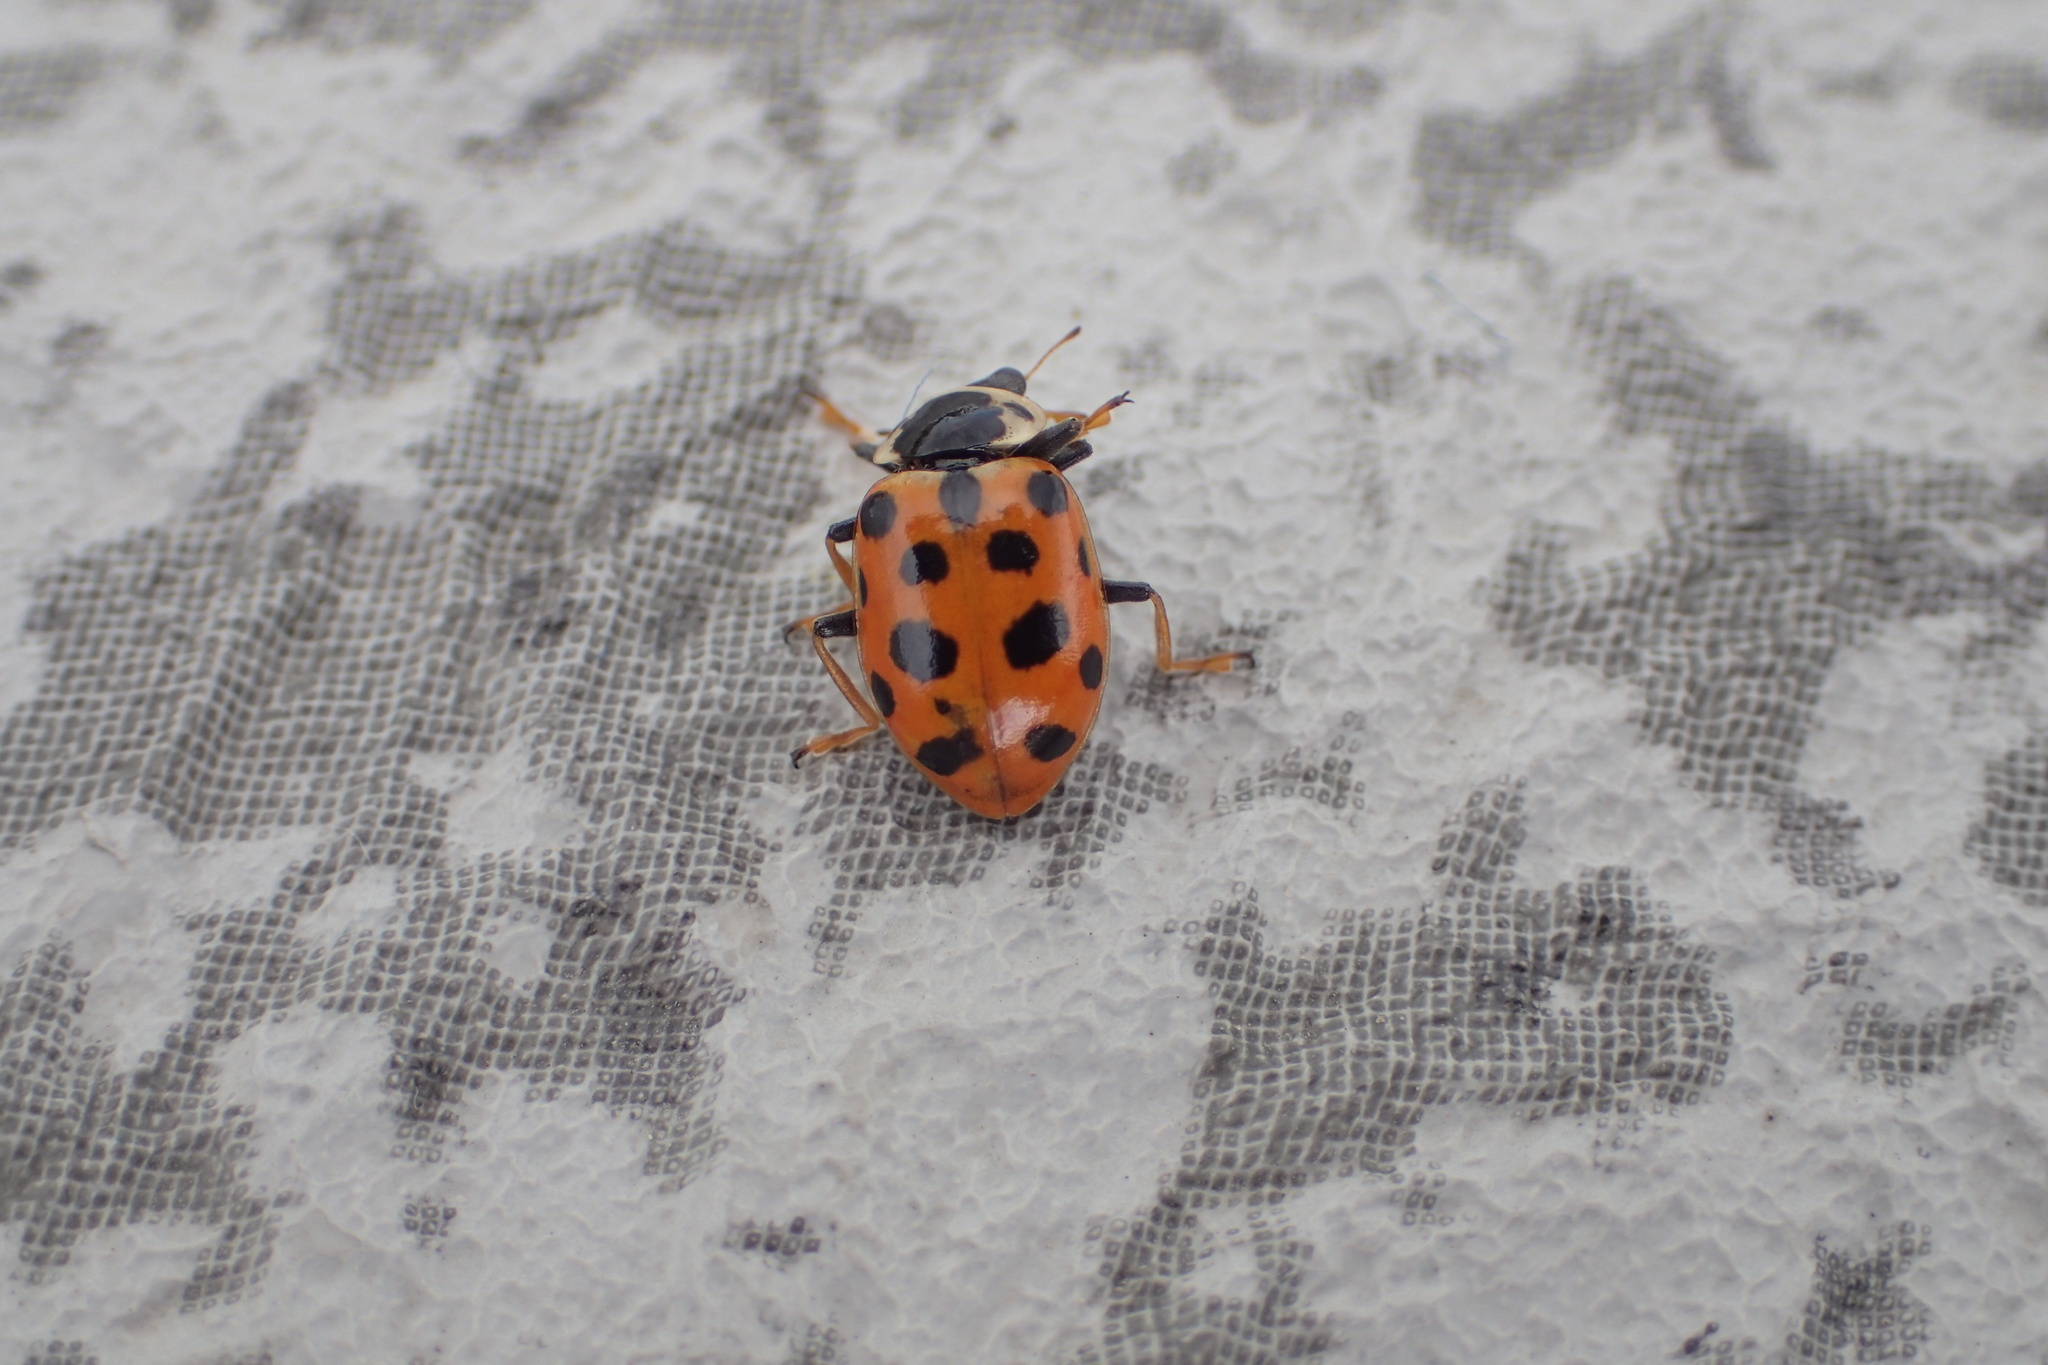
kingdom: Animalia
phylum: Arthropoda
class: Insecta
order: Coleoptera
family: Coccinellidae
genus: Hippodamia
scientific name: Hippodamia tredecimpunctata
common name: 13-spot ladybird
